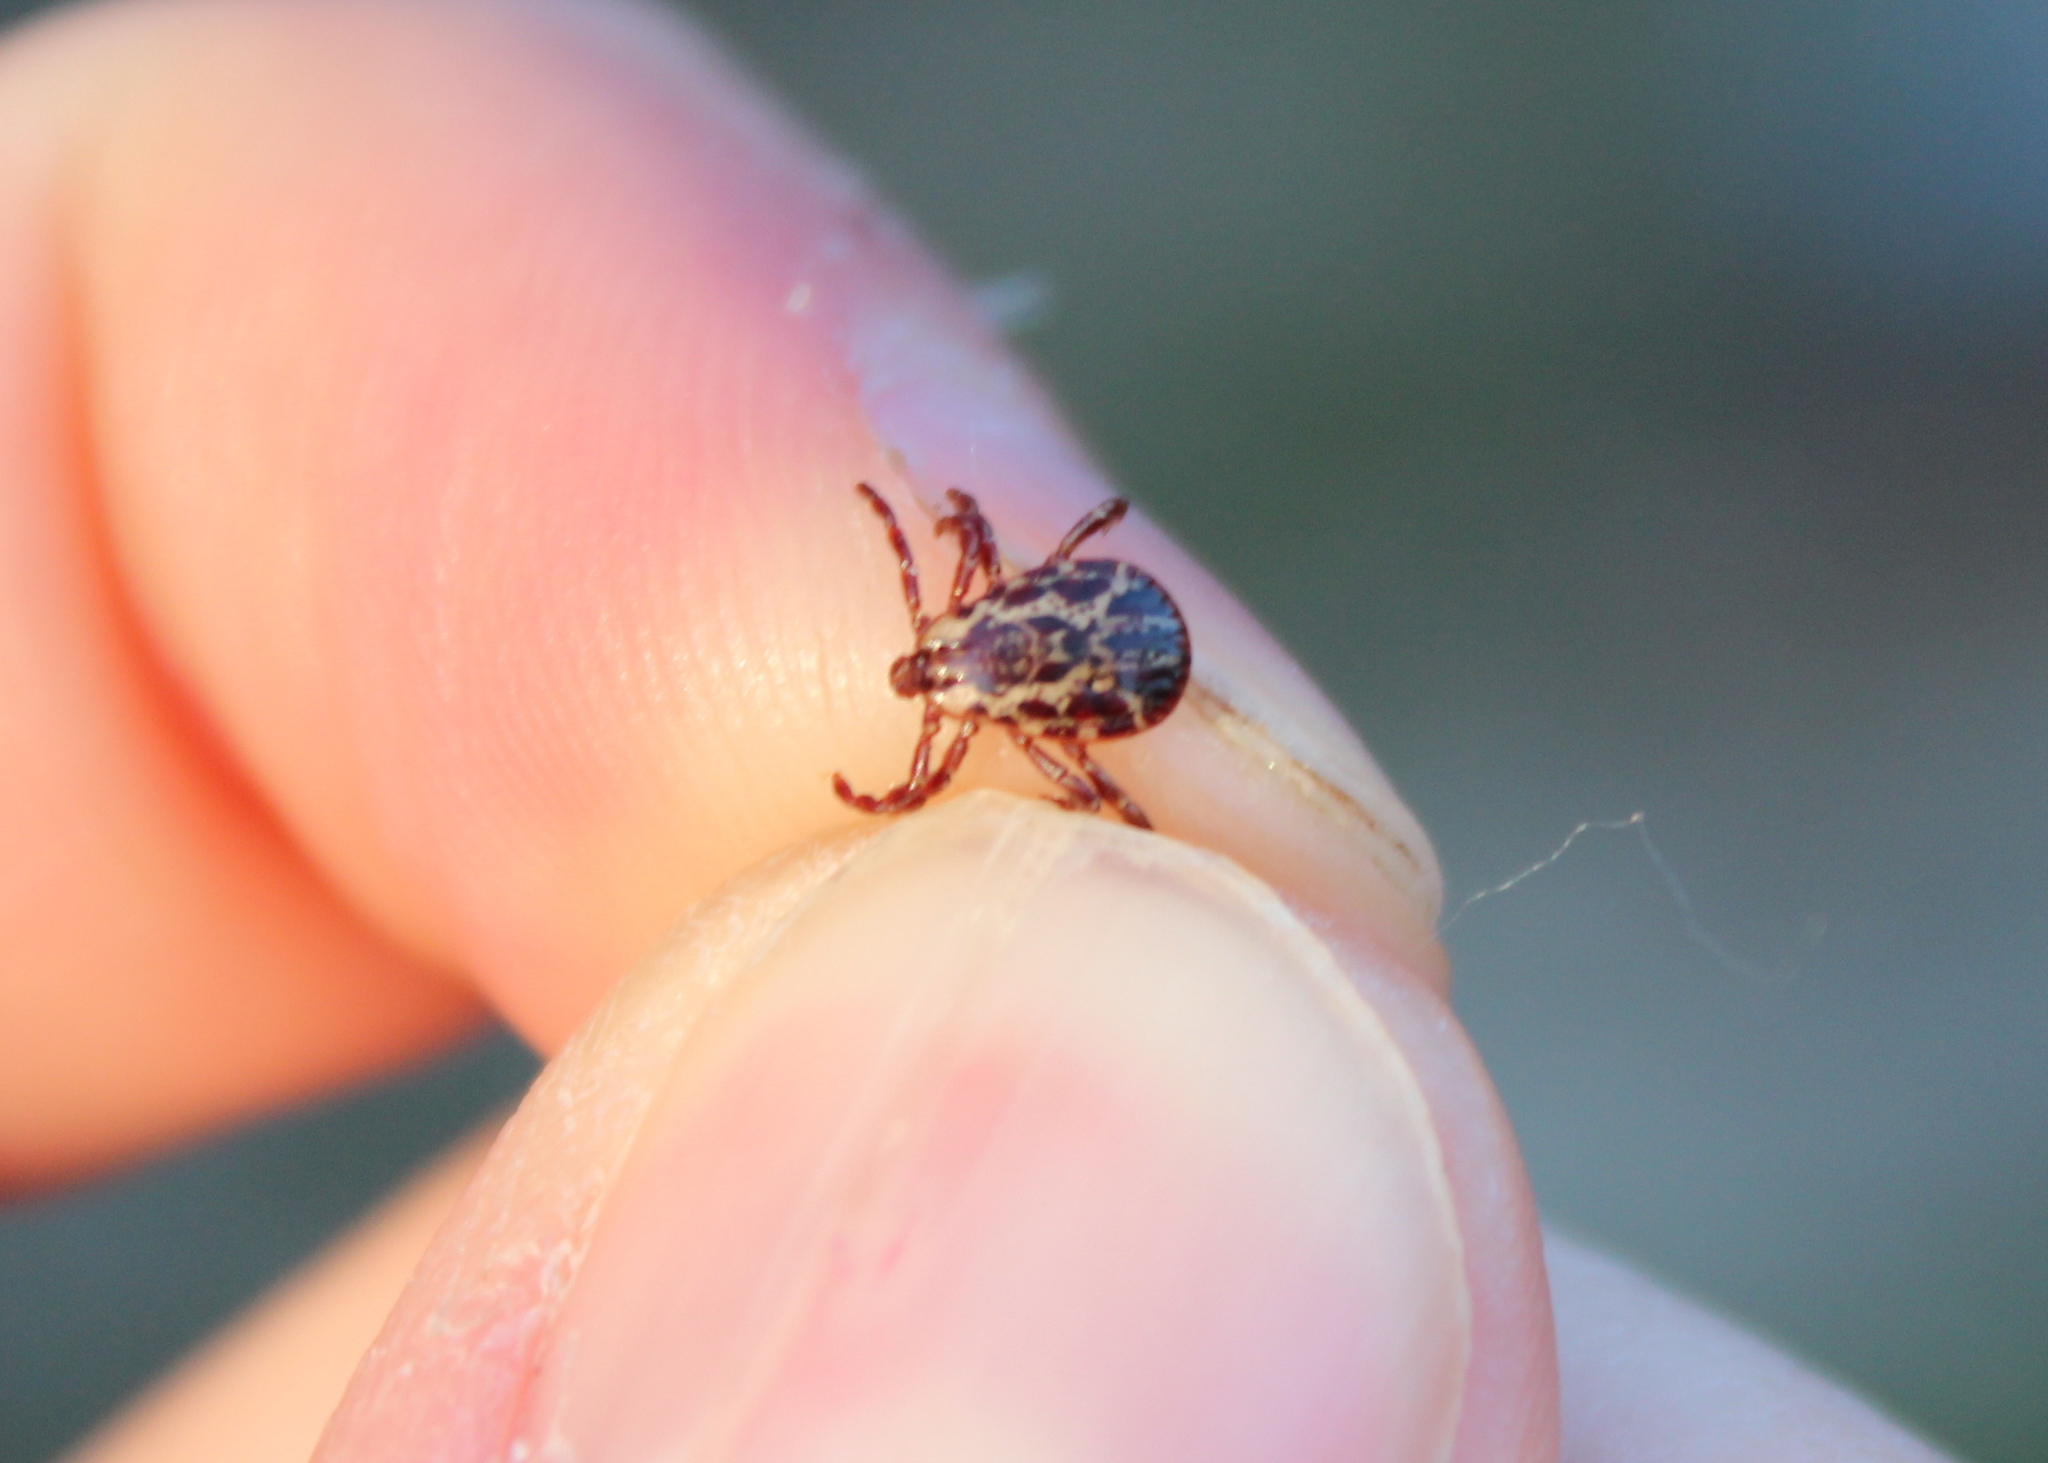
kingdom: Animalia
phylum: Arthropoda
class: Arachnida
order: Ixodida
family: Ixodidae
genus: Dermacentor
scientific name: Dermacentor variabilis
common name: American dog tick
